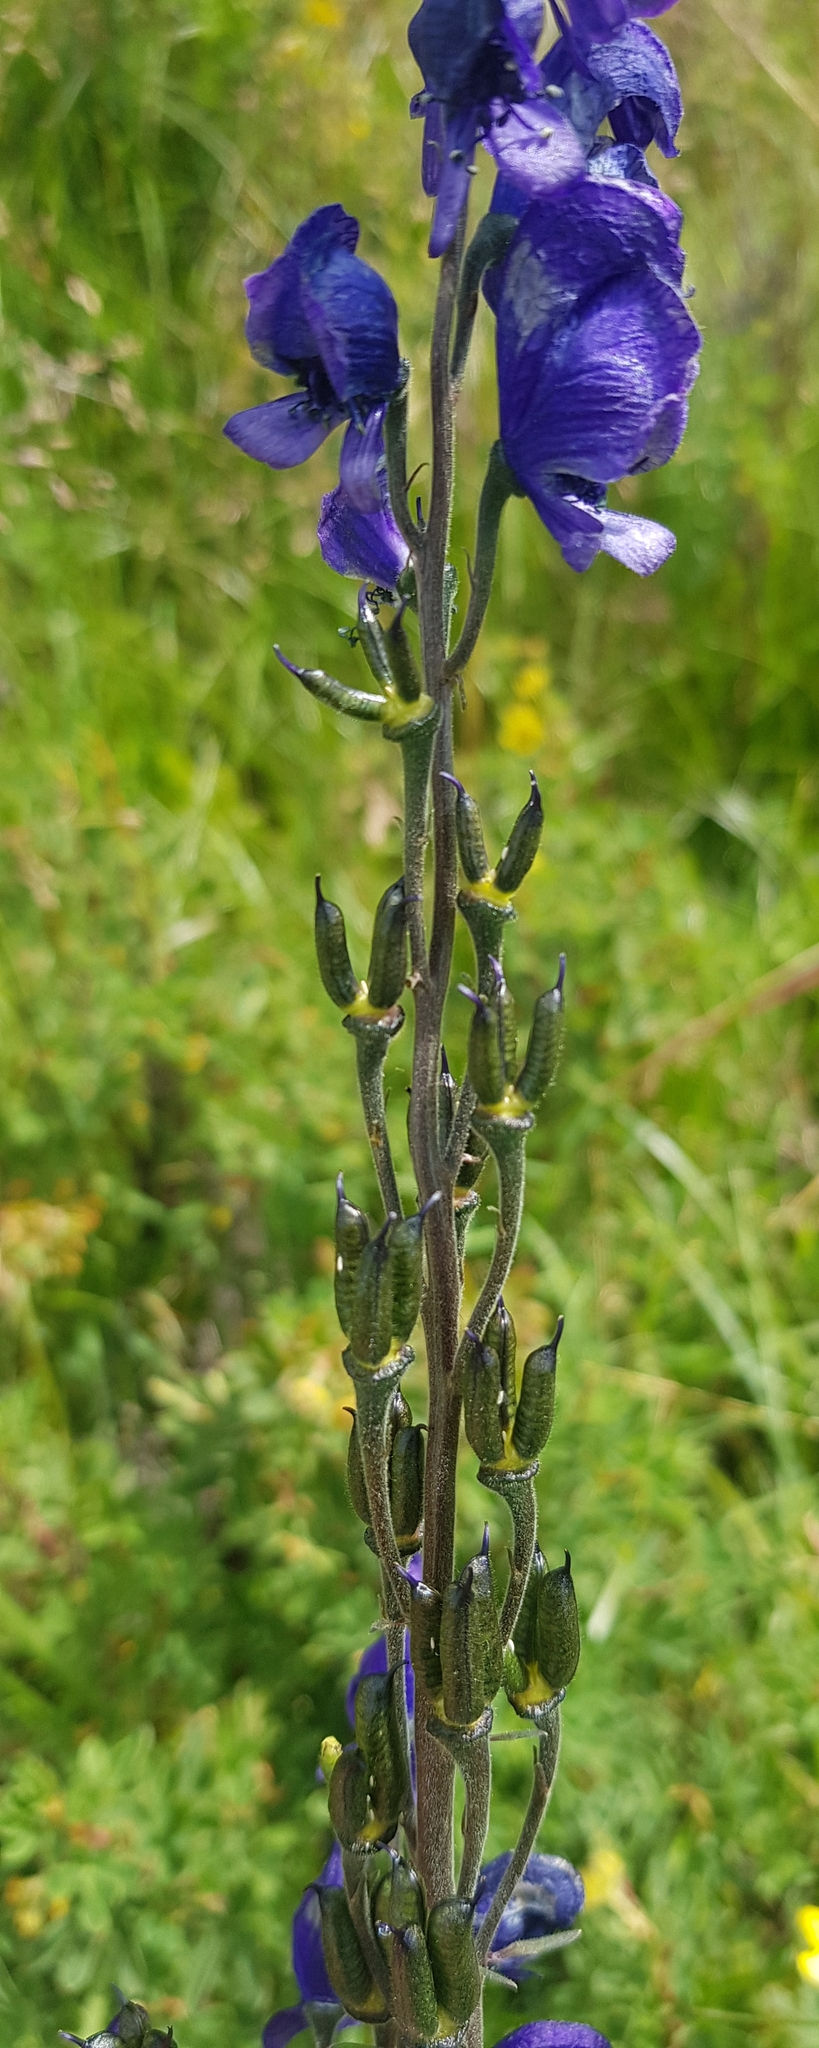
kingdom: Plantae
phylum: Tracheophyta
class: Magnoliopsida
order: Ranunculales
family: Ranunculaceae
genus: Aconitum
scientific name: Aconitum baicalense
